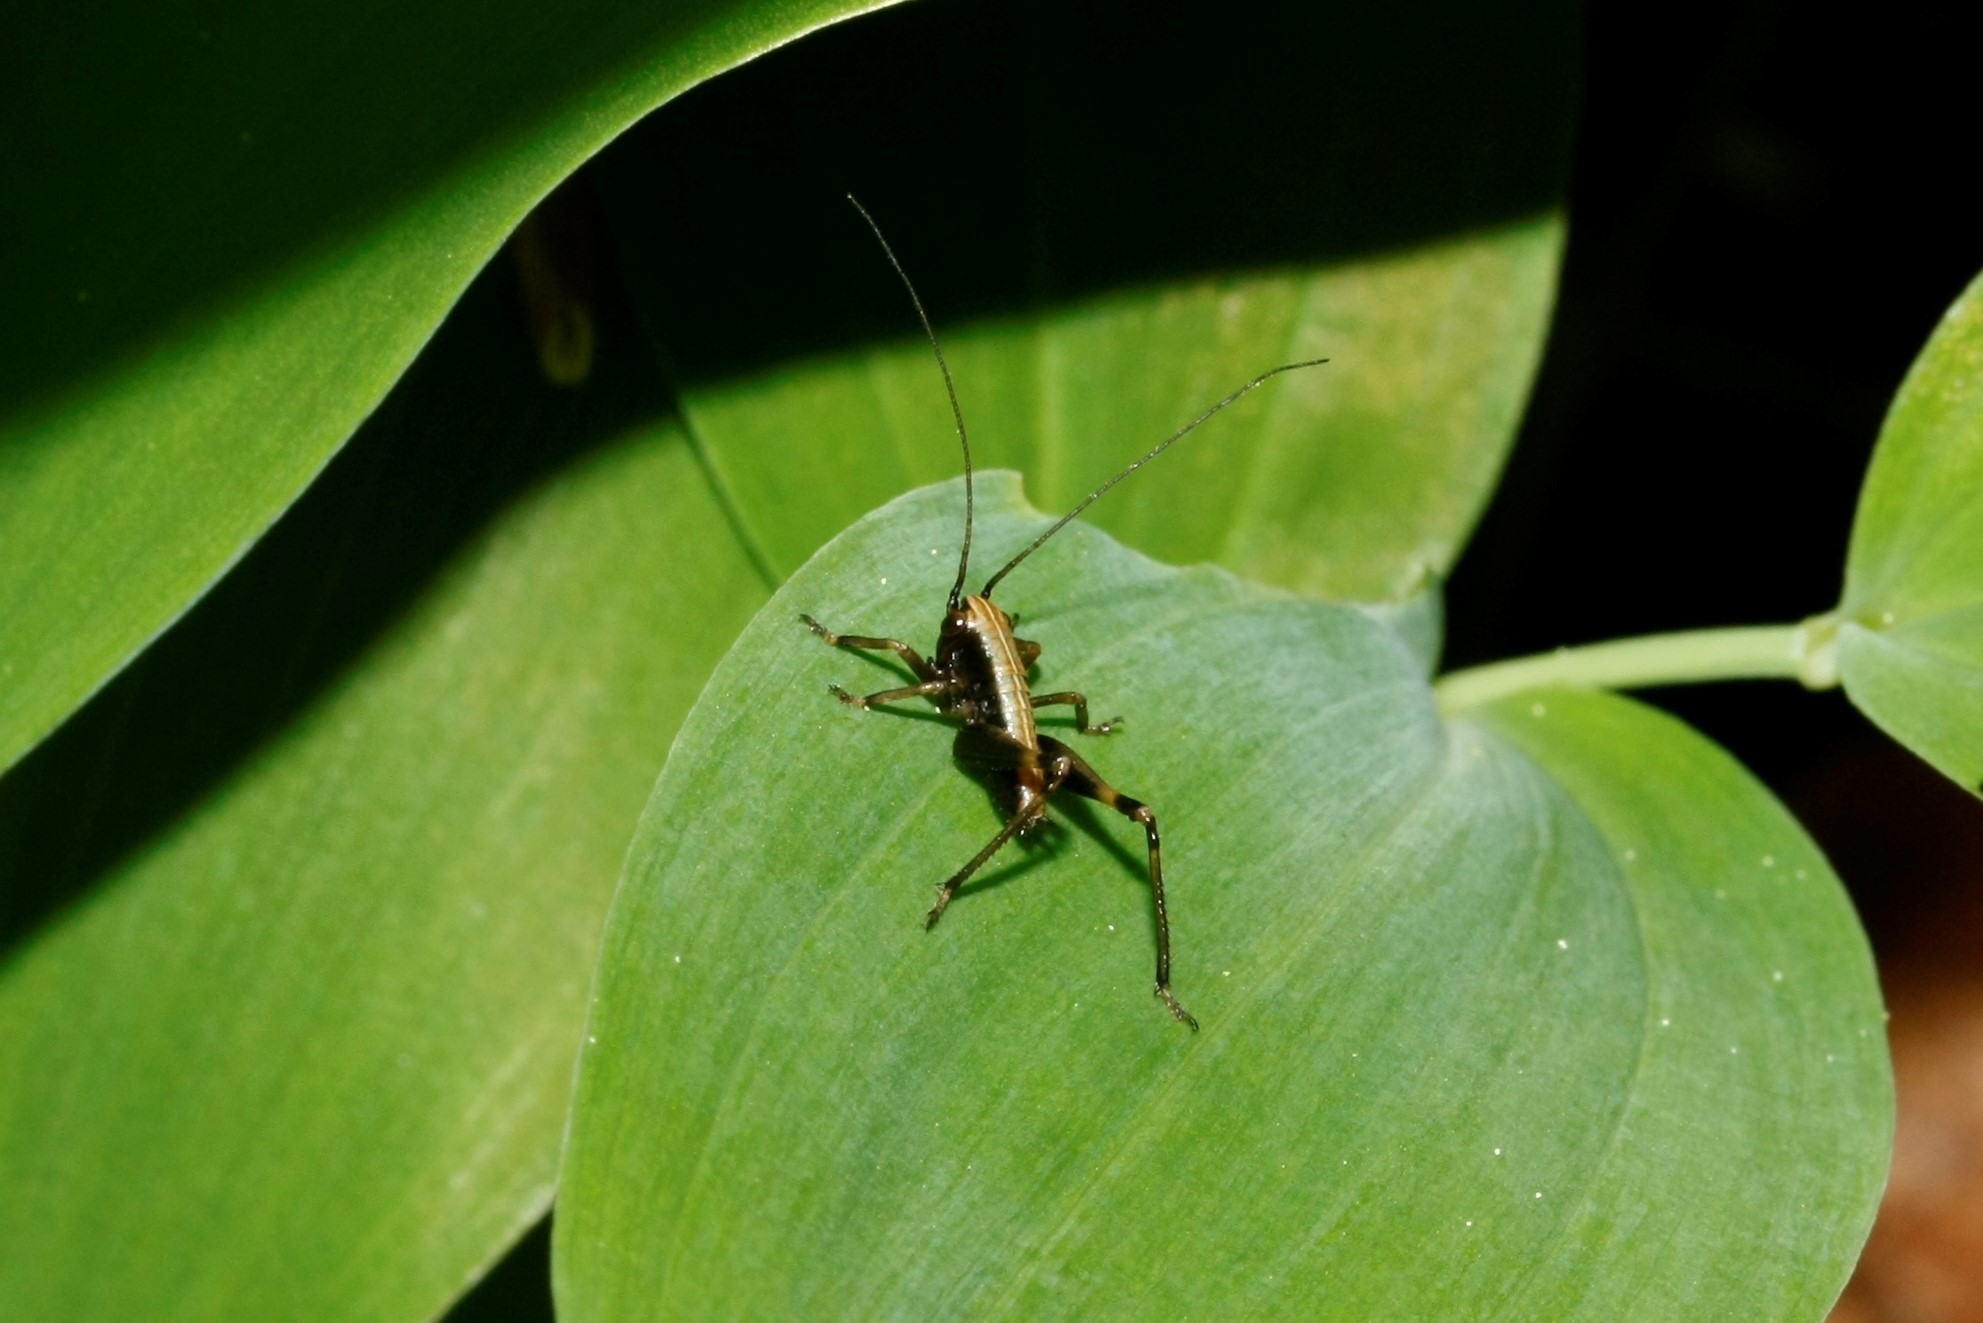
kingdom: Animalia
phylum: Arthropoda
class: Insecta
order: Orthoptera
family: Tettigoniidae
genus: Pholidoptera
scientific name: Pholidoptera griseoaptera
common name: Dark bush-cricket
